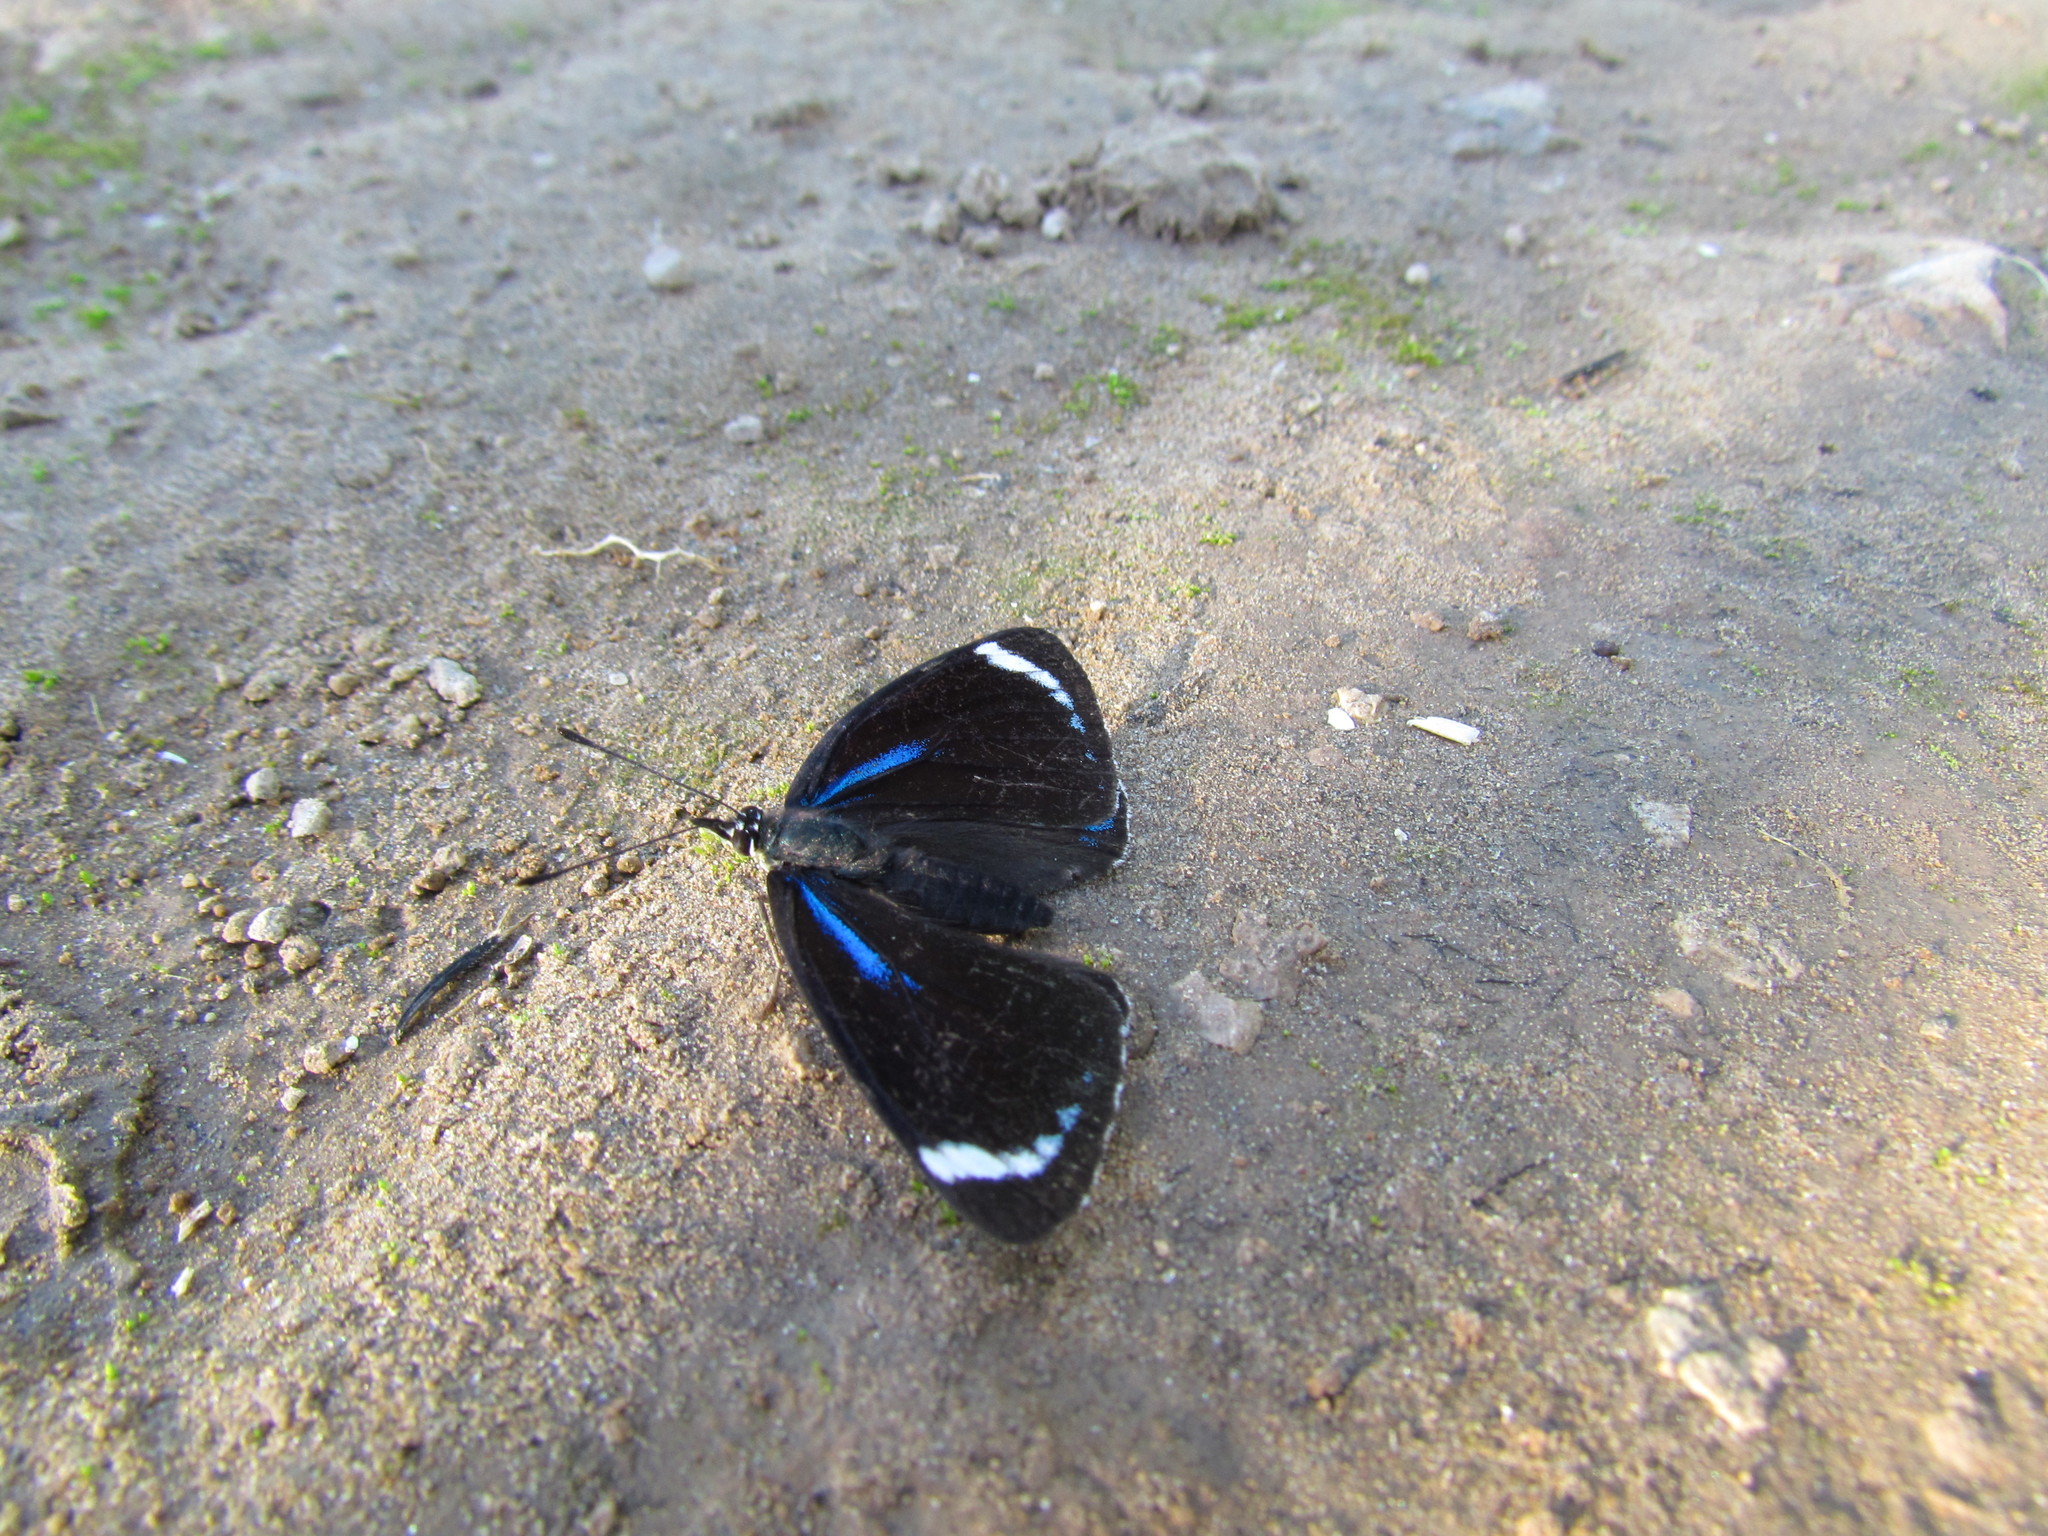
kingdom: Animalia
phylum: Arthropoda
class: Insecta
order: Lepidoptera
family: Nymphalidae
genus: Diaethria
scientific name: Diaethria candrena
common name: Number eighty
